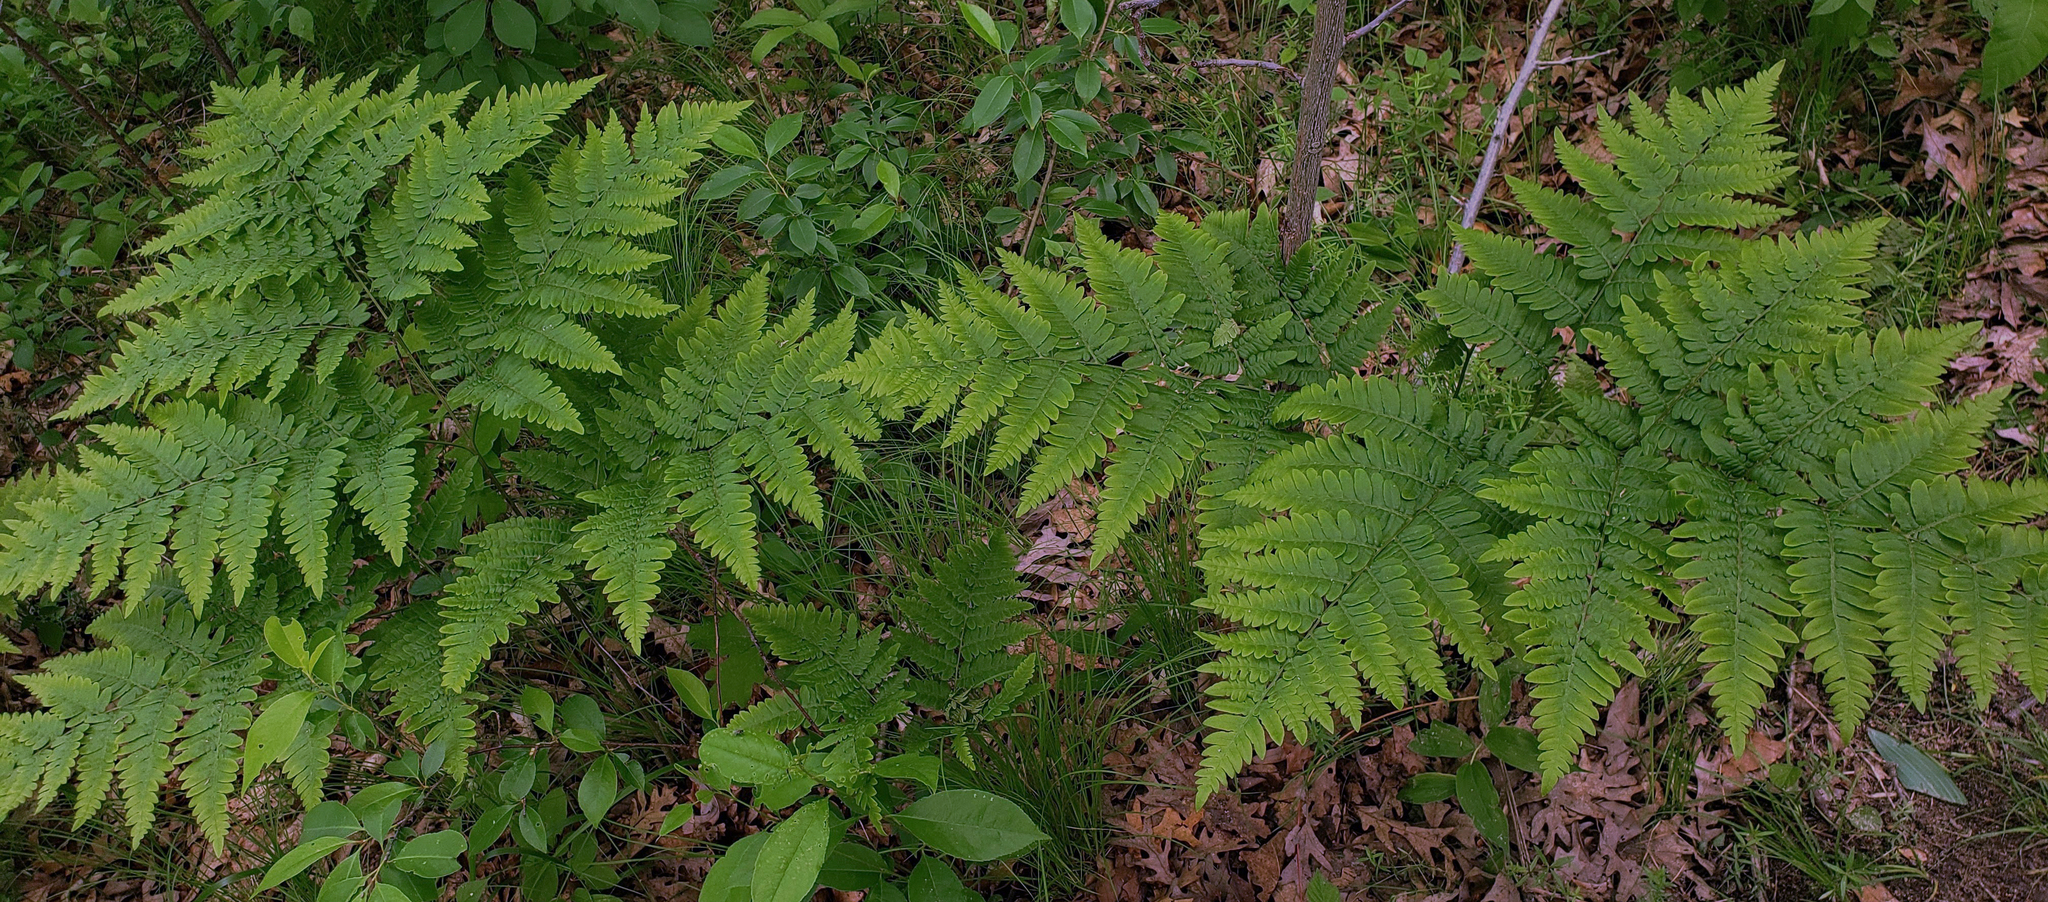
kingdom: Plantae
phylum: Tracheophyta
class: Polypodiopsida
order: Polypodiales
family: Dennstaedtiaceae
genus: Pteridium
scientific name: Pteridium aquilinum
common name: Bracken
